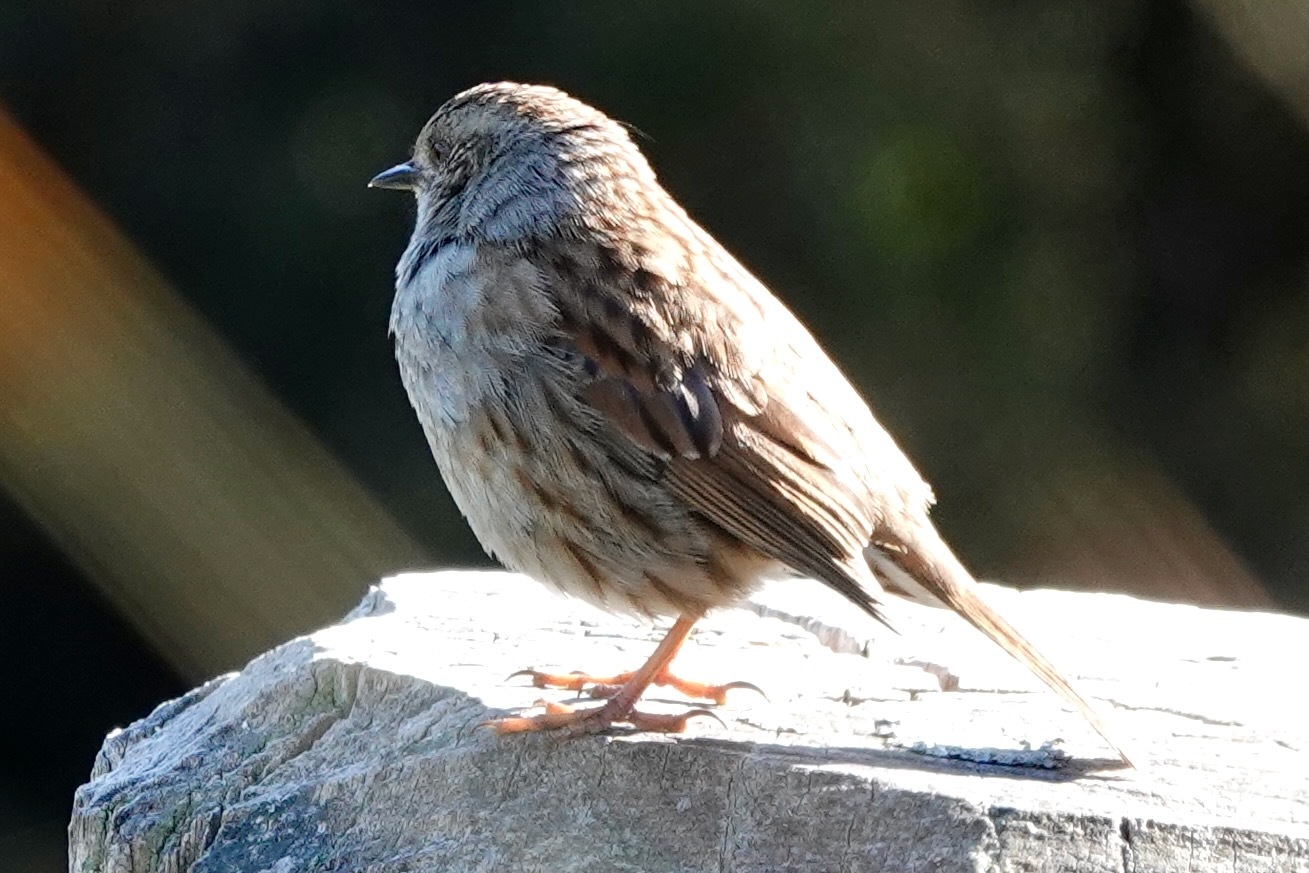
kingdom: Animalia
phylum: Chordata
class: Aves
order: Passeriformes
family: Prunellidae
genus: Prunella
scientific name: Prunella modularis
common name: Dunnock
